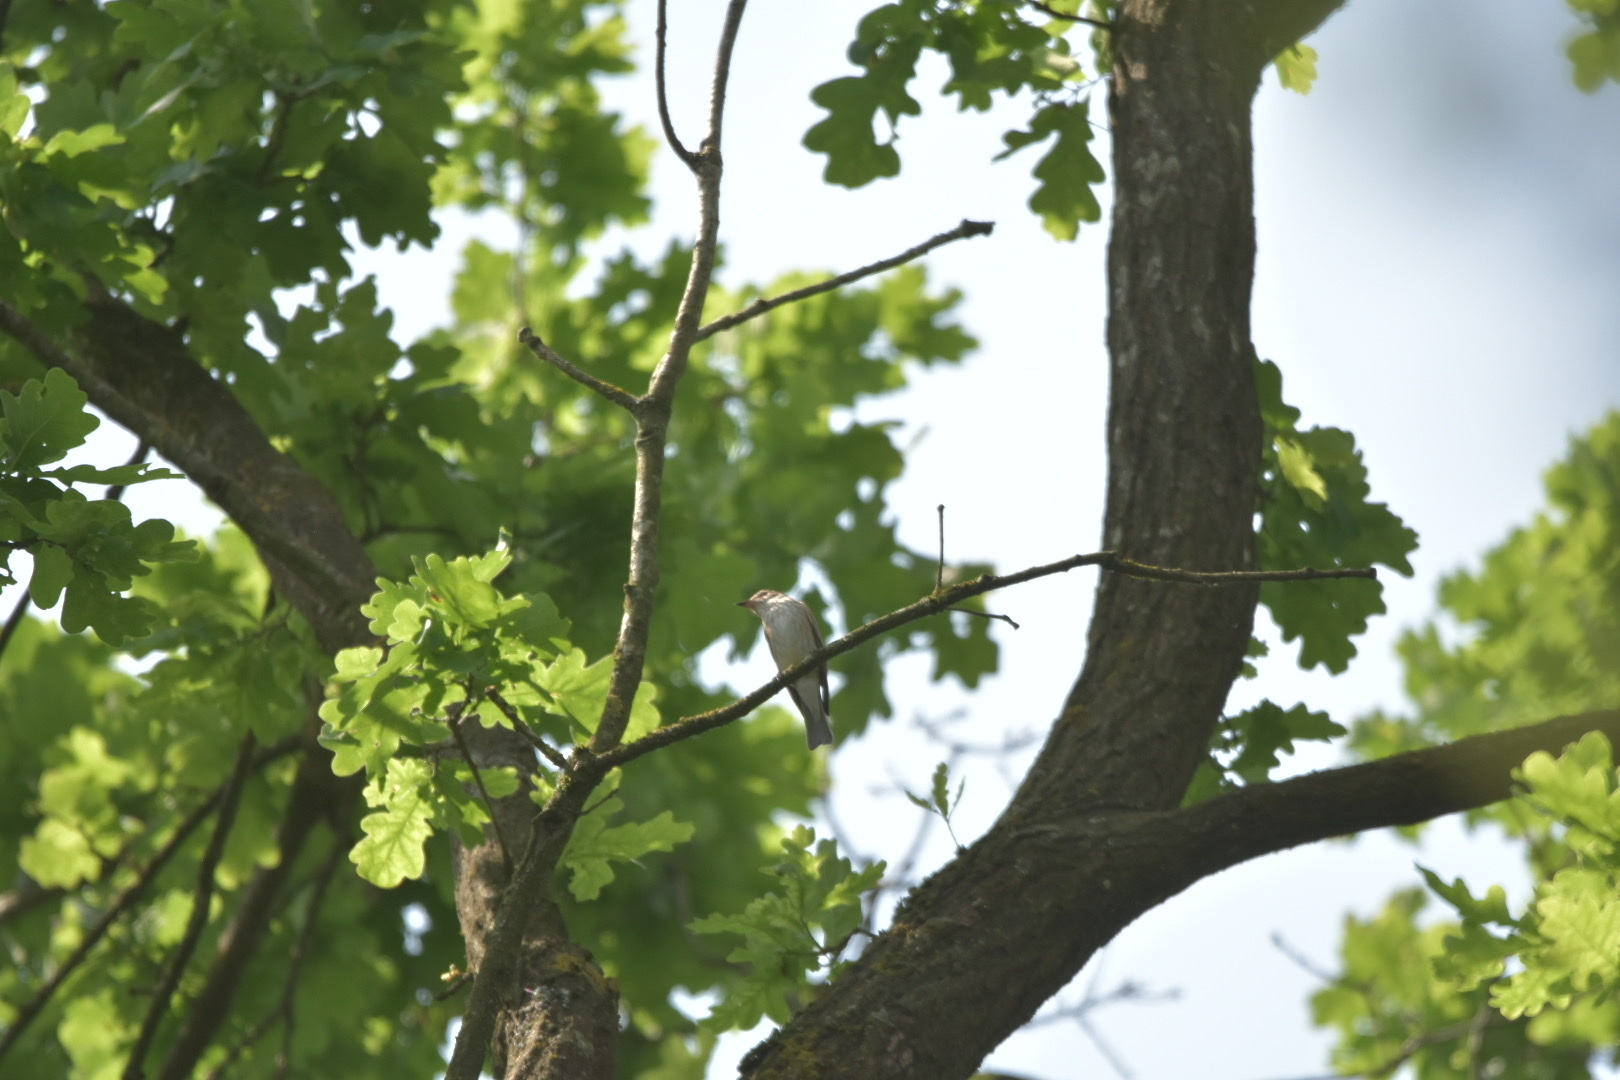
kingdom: Animalia
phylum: Chordata
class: Aves
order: Passeriformes
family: Muscicapidae
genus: Muscicapa
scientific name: Muscicapa striata
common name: Spotted flycatcher
